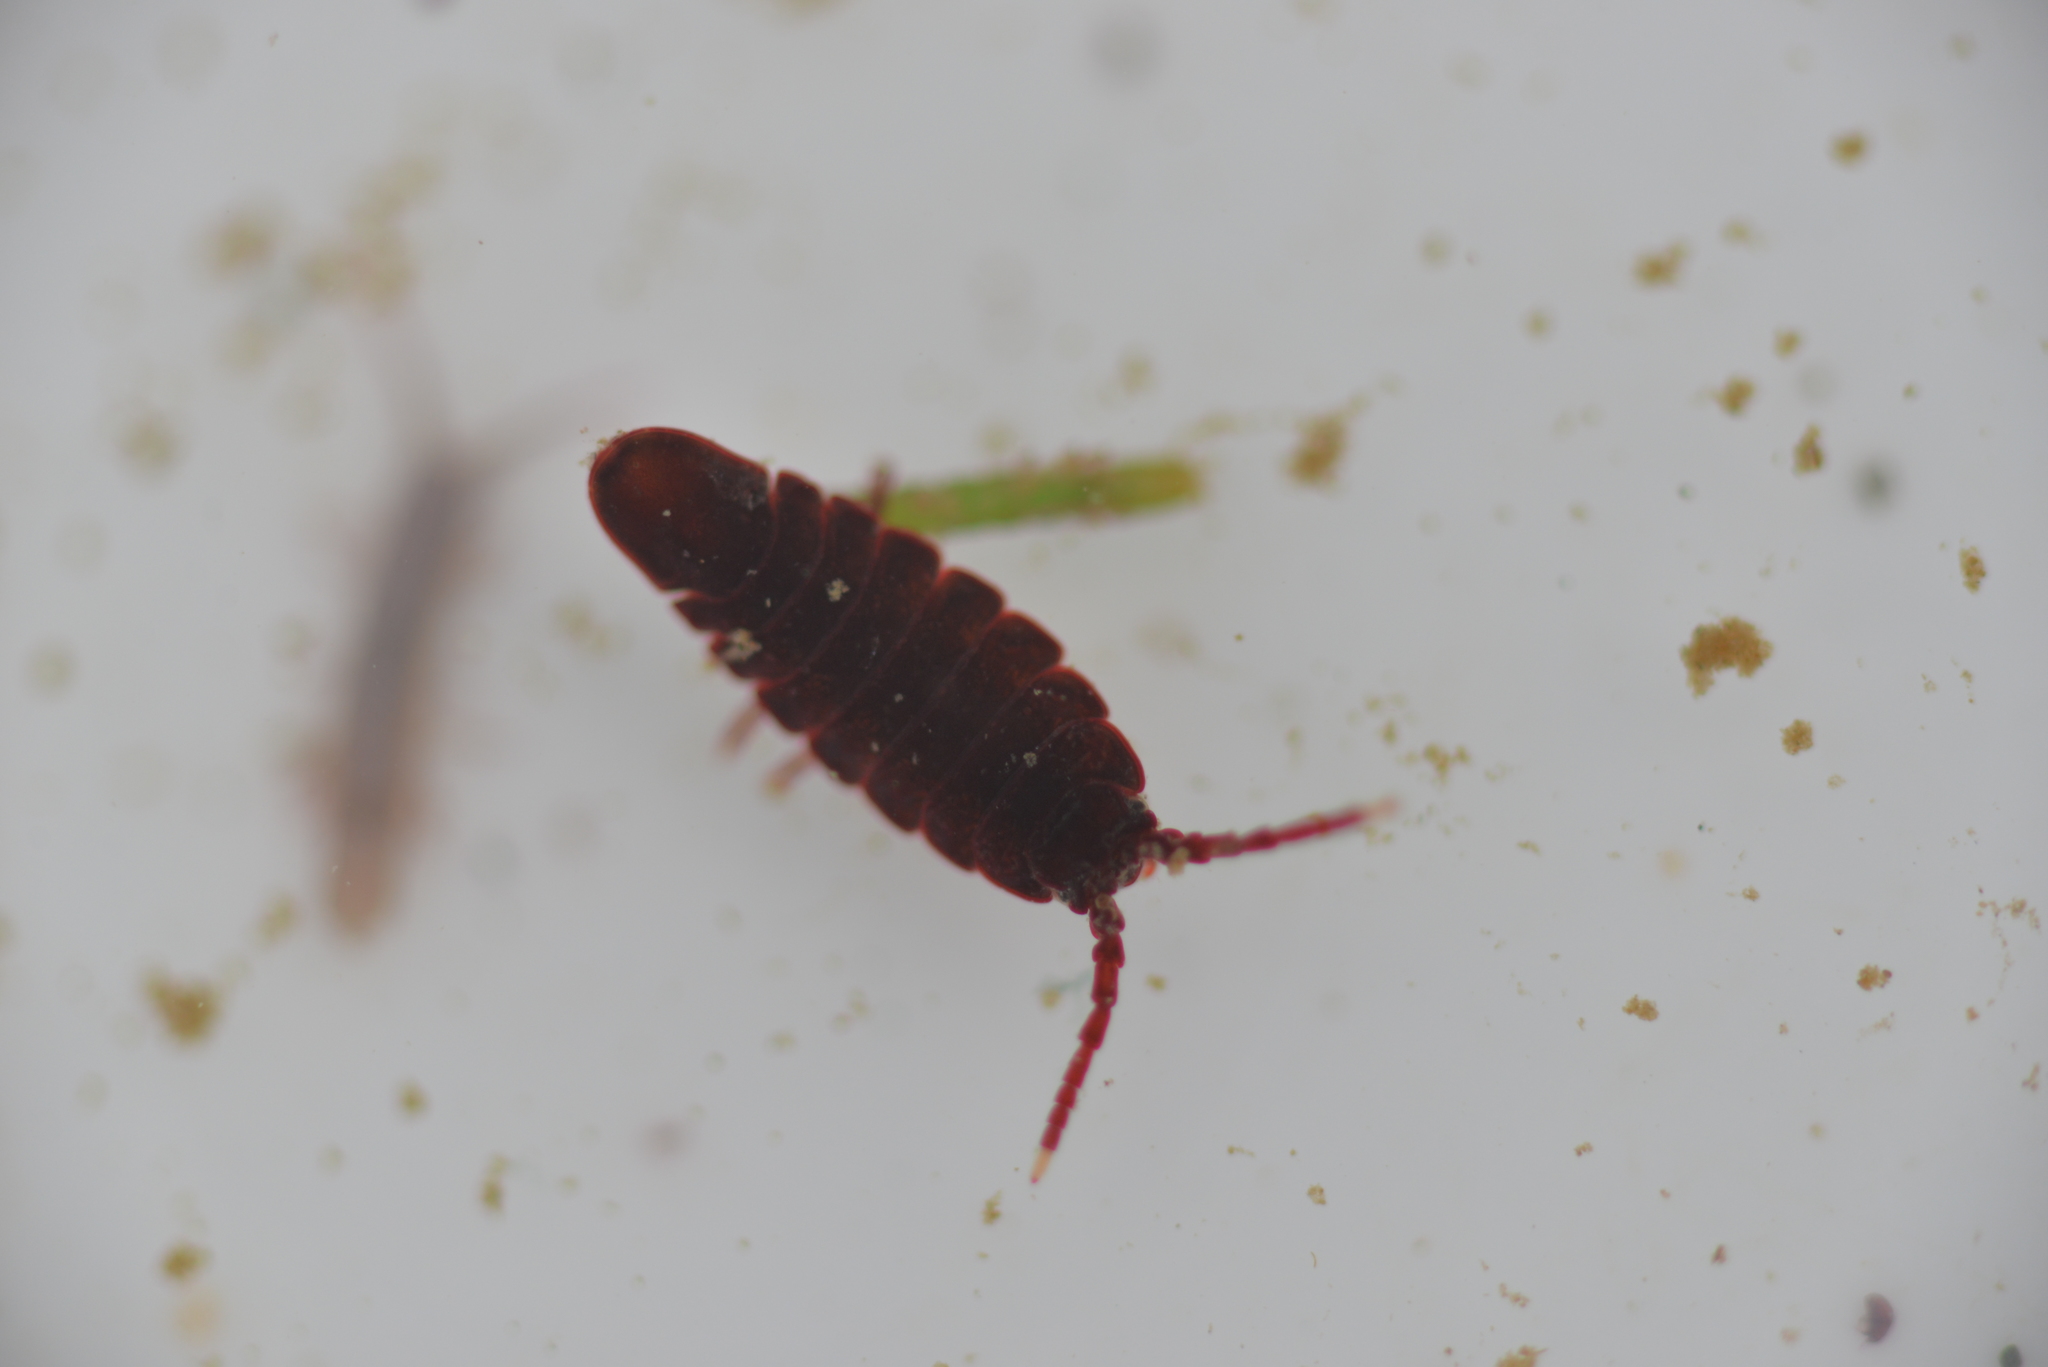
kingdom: Animalia
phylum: Arthropoda
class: Malacostraca
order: Isopoda
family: Idoteidae
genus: Colidotea
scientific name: Colidotea rostrata
